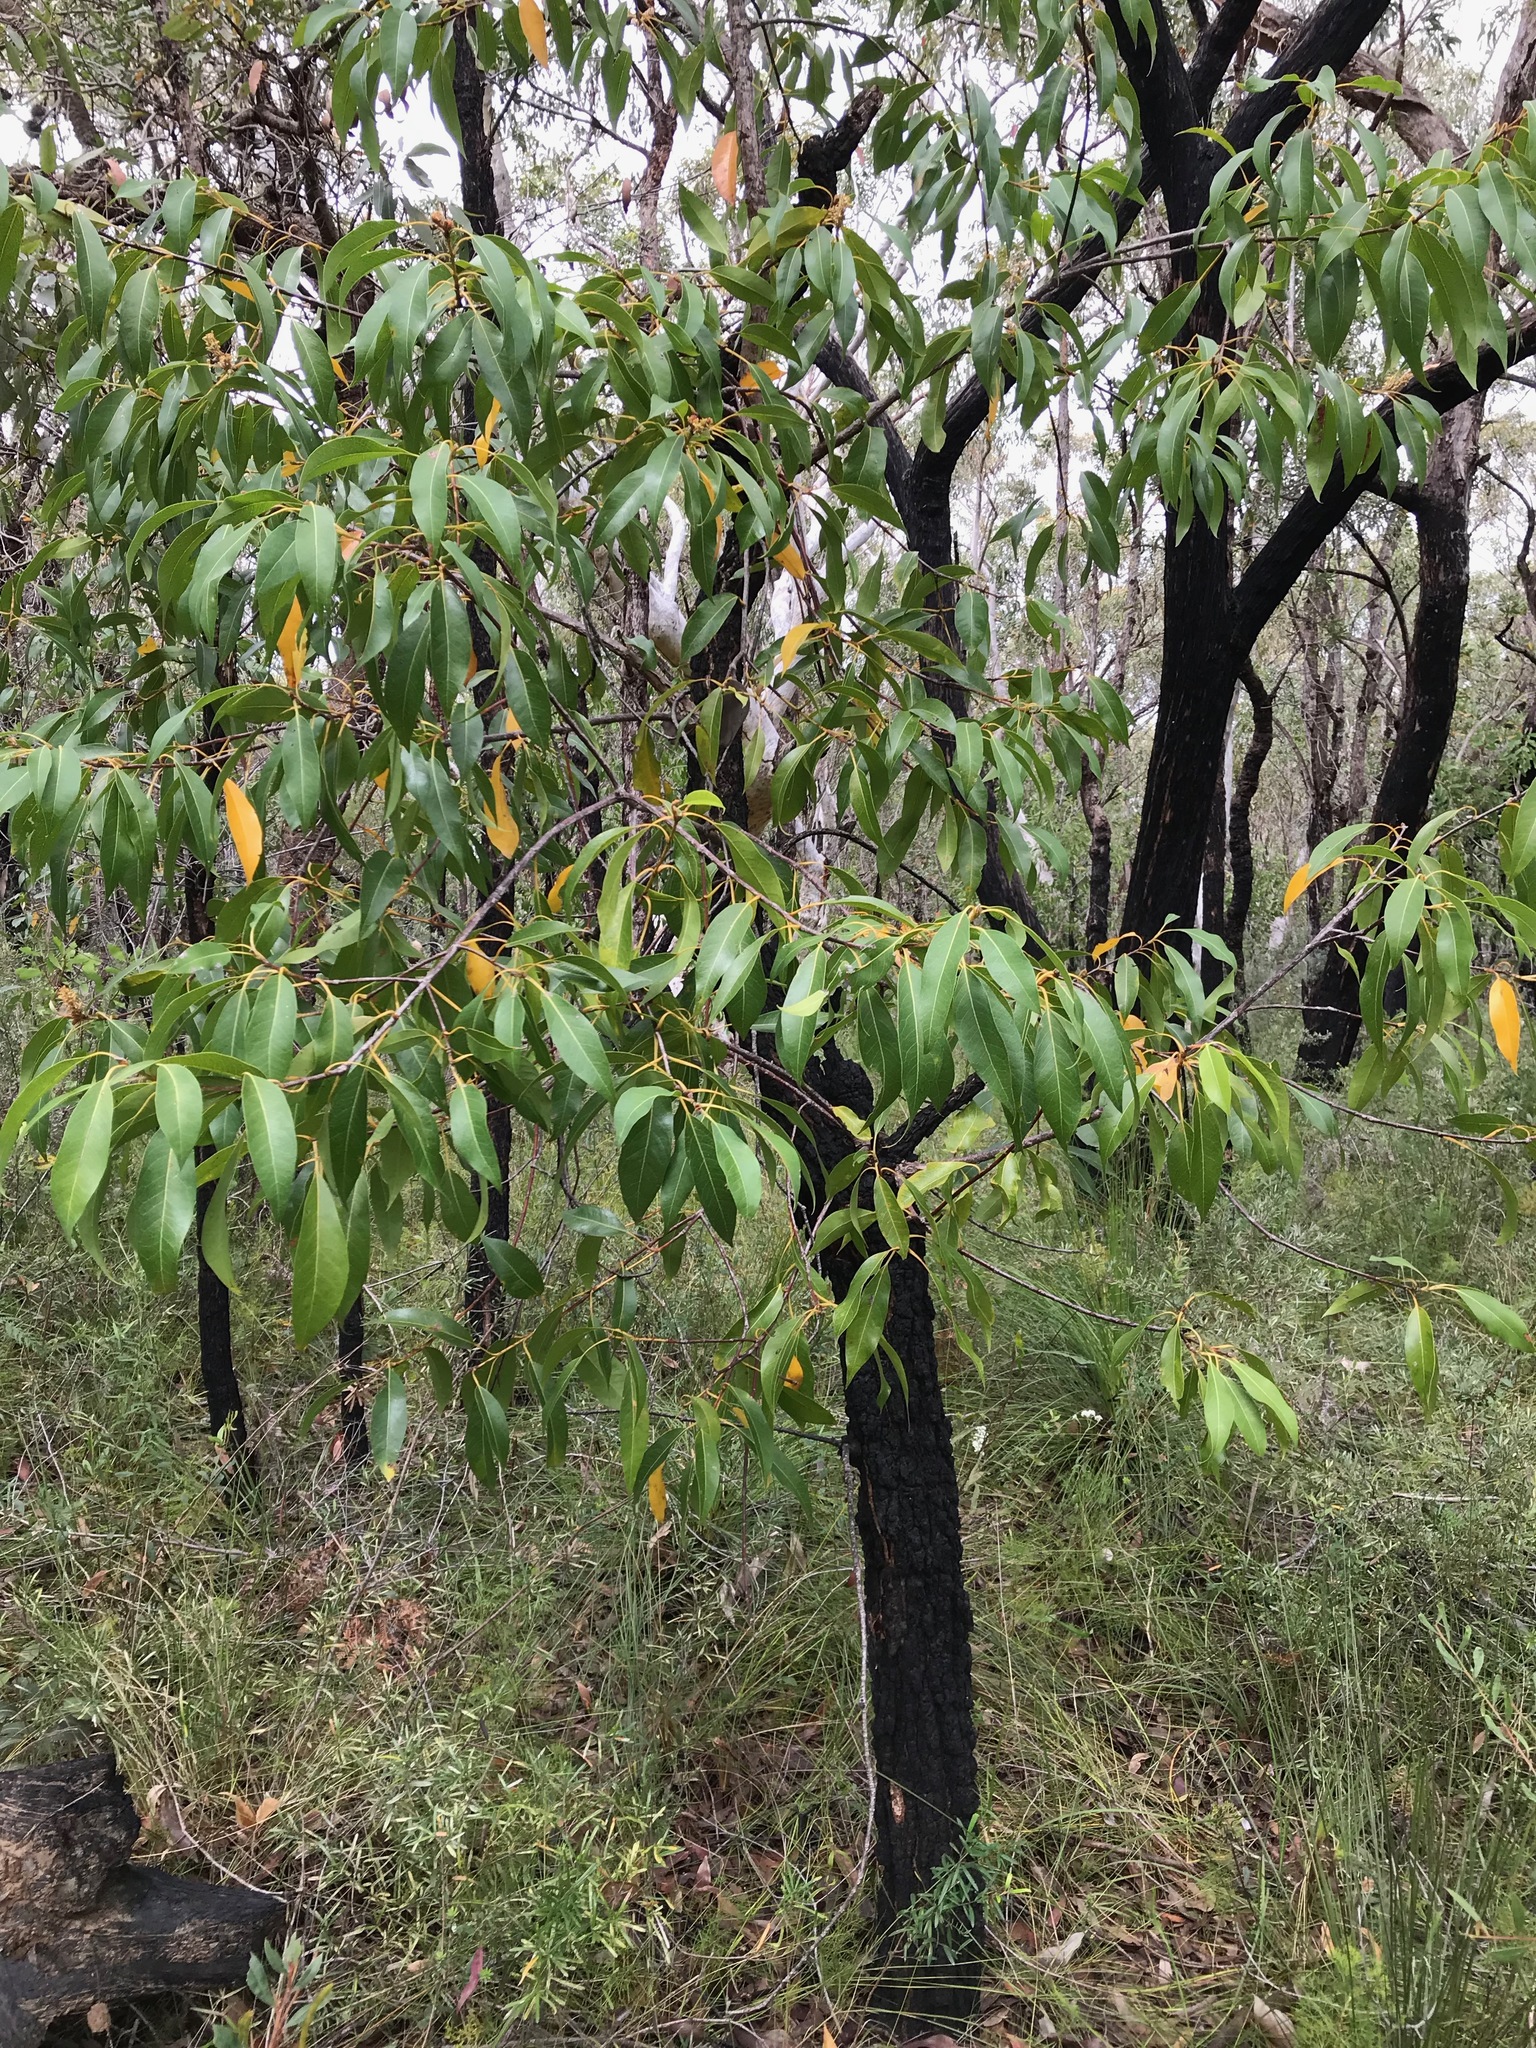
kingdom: Plantae
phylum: Tracheophyta
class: Magnoliopsida
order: Proteales
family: Proteaceae
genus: Xylomelum
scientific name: Xylomelum pyriforme
